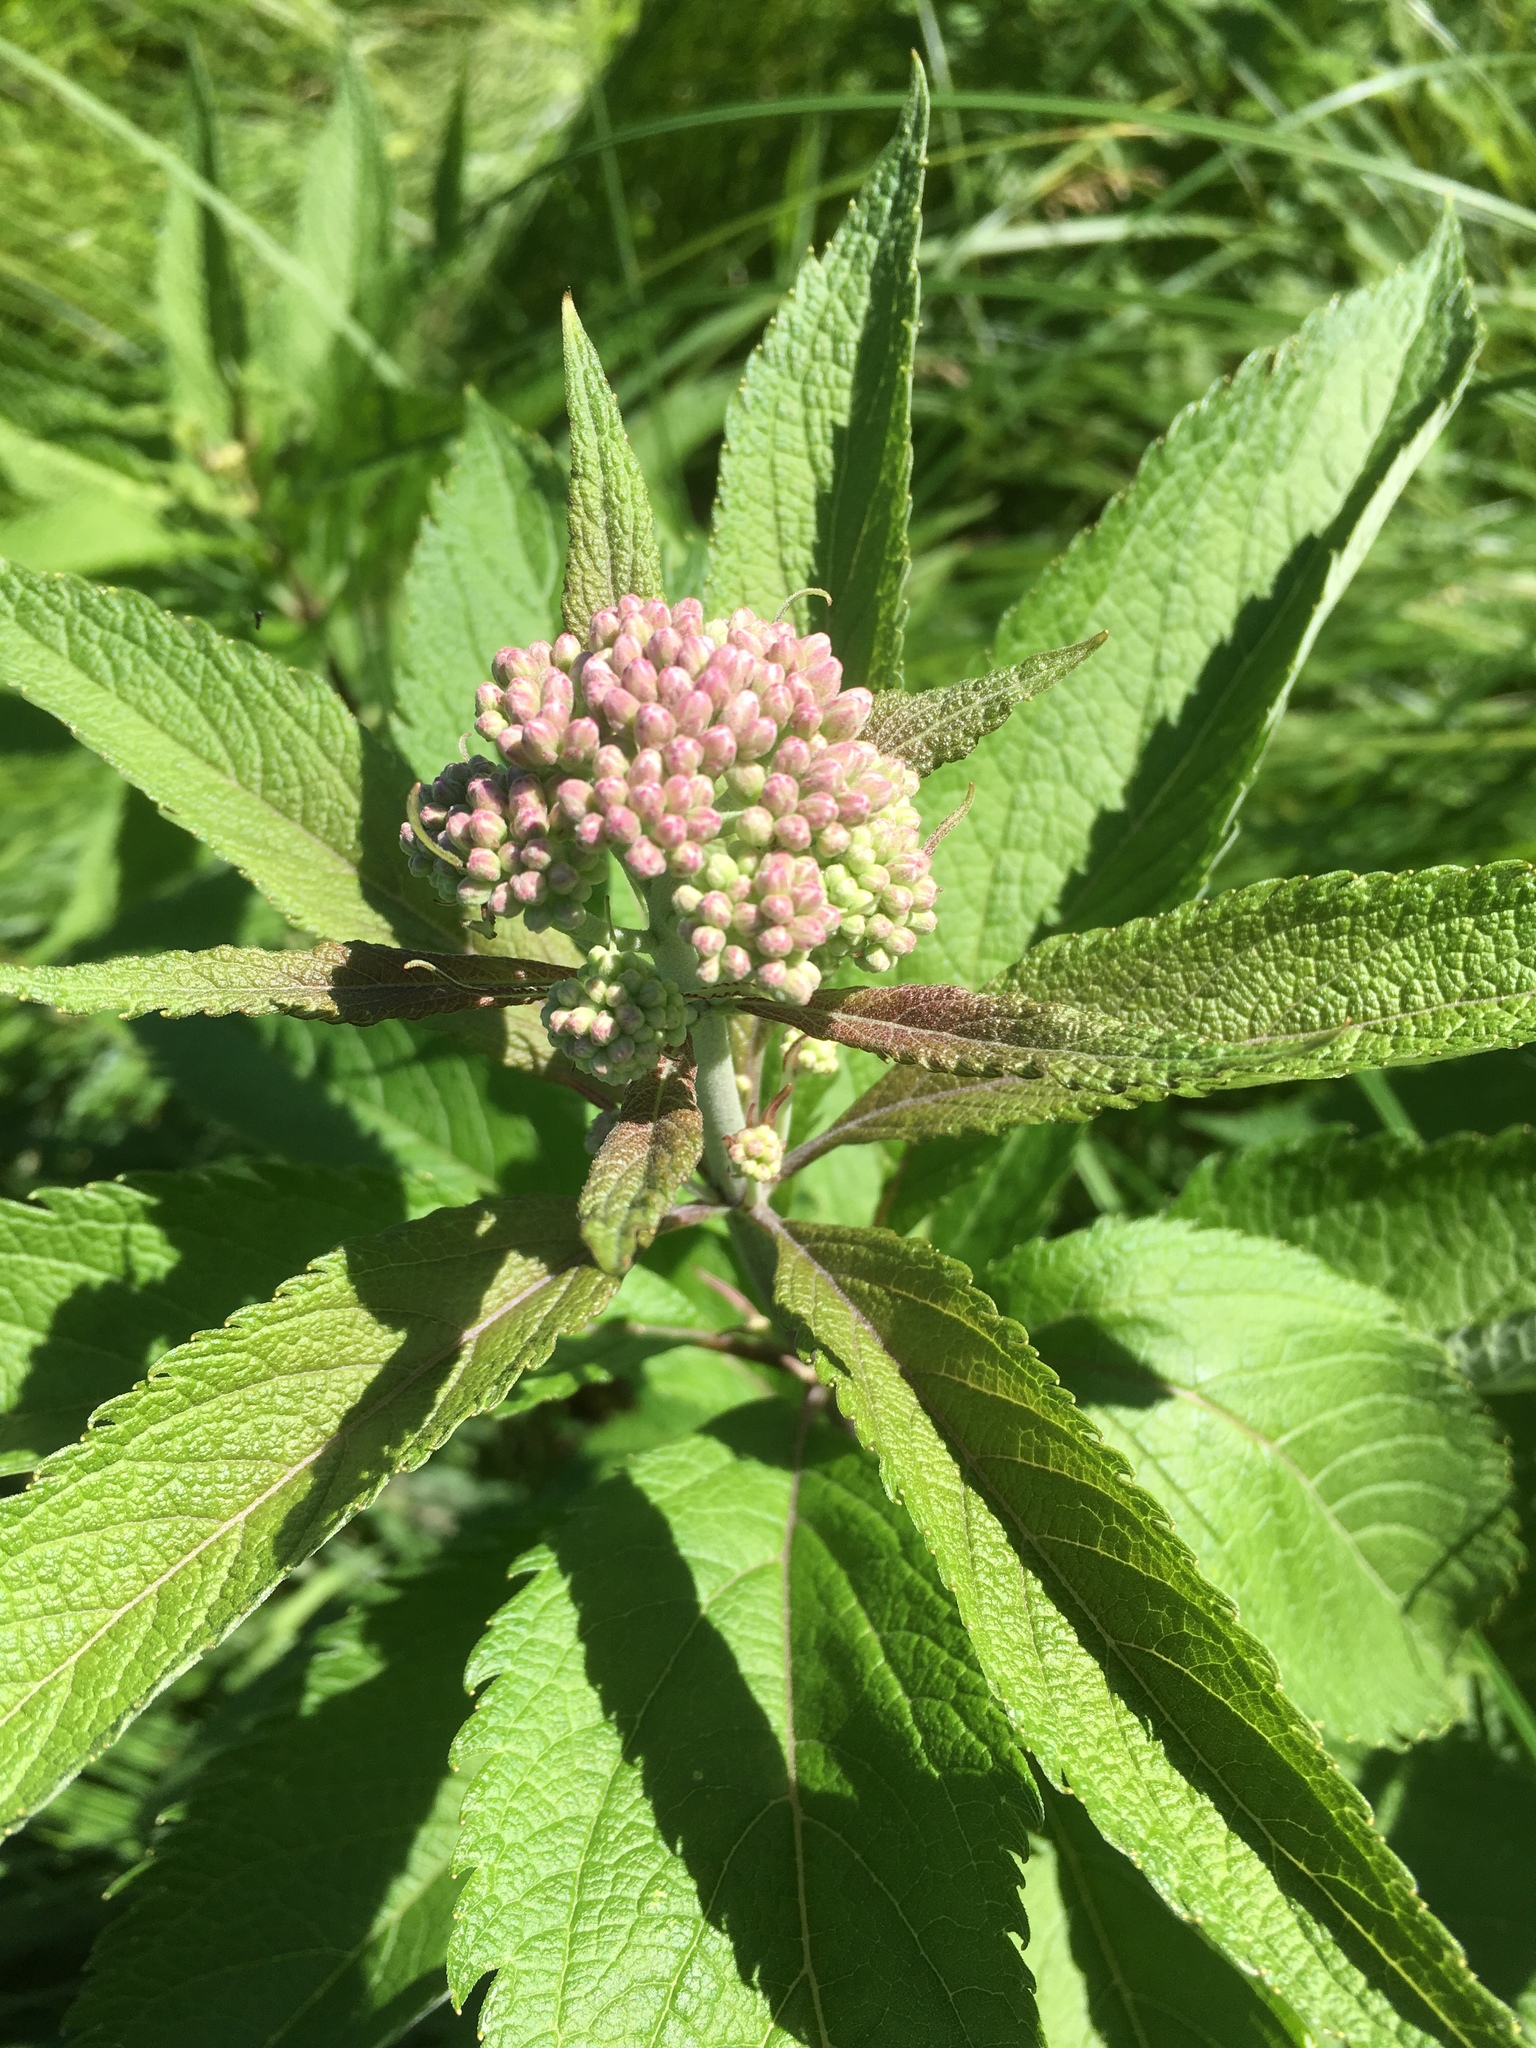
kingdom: Plantae
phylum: Tracheophyta
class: Magnoliopsida
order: Asterales
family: Asteraceae
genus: Eutrochium
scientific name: Eutrochium maculatum
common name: Spotted joe pye weed
